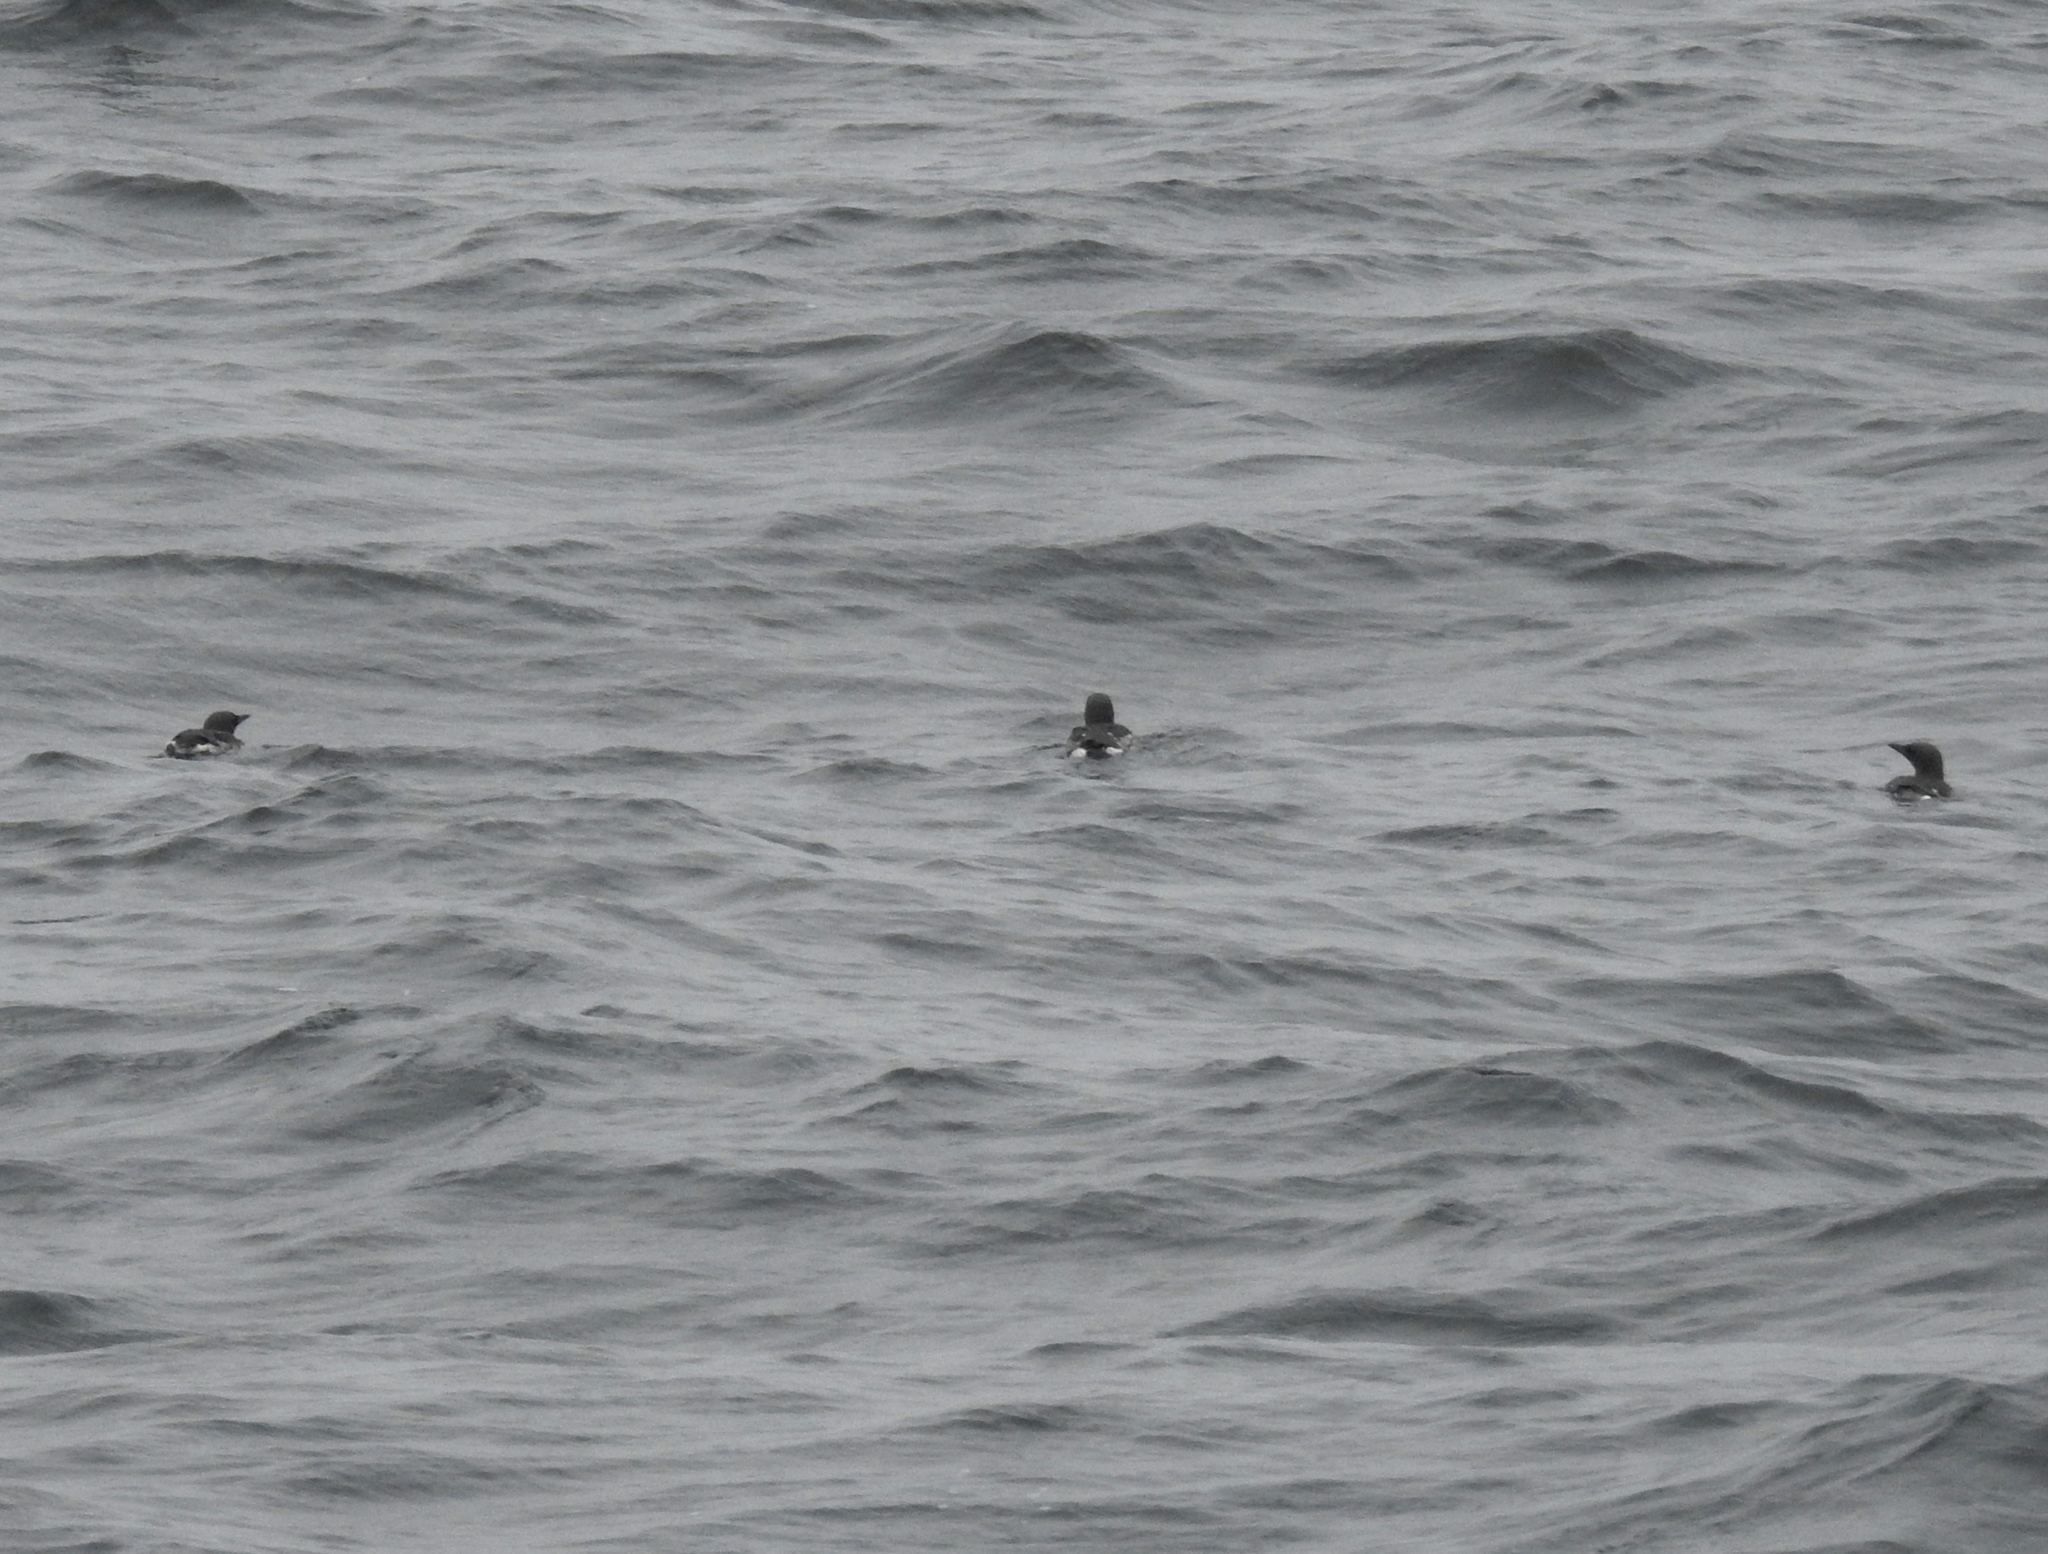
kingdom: Animalia
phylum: Chordata
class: Aves
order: Charadriiformes
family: Alcidae
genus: Uria
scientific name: Uria aalge
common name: Common murre
